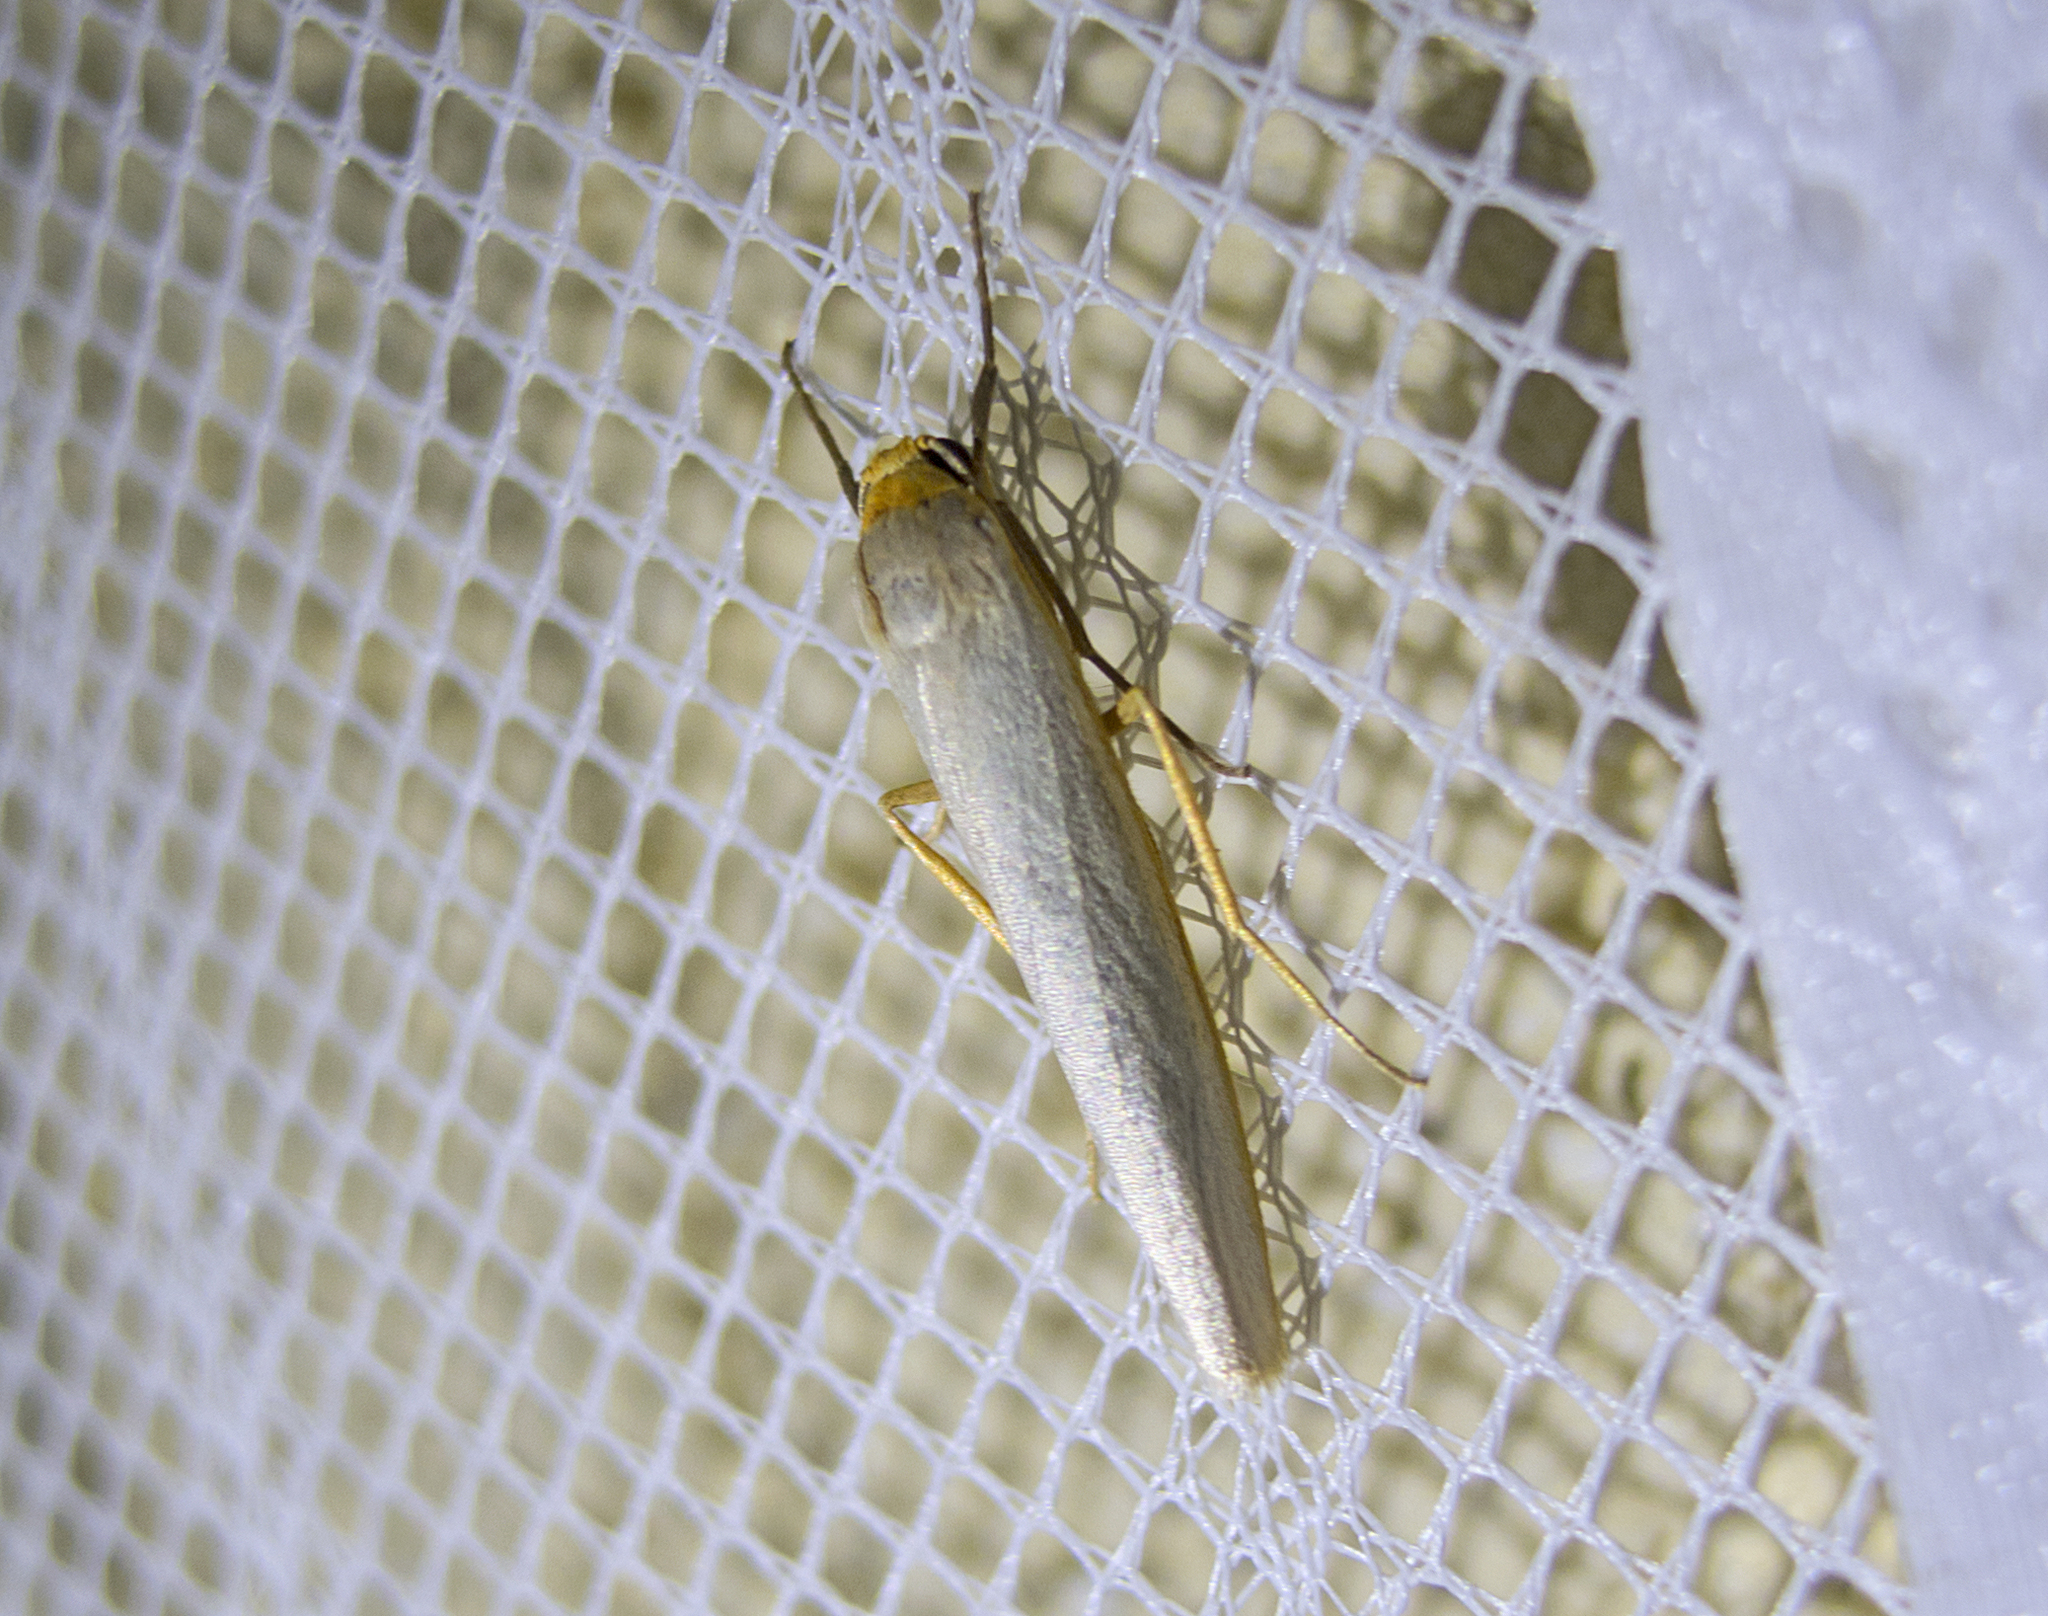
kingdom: Animalia
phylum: Arthropoda
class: Insecta
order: Lepidoptera
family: Erebidae
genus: Eilema
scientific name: Eilema caniola
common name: Hoary footman
